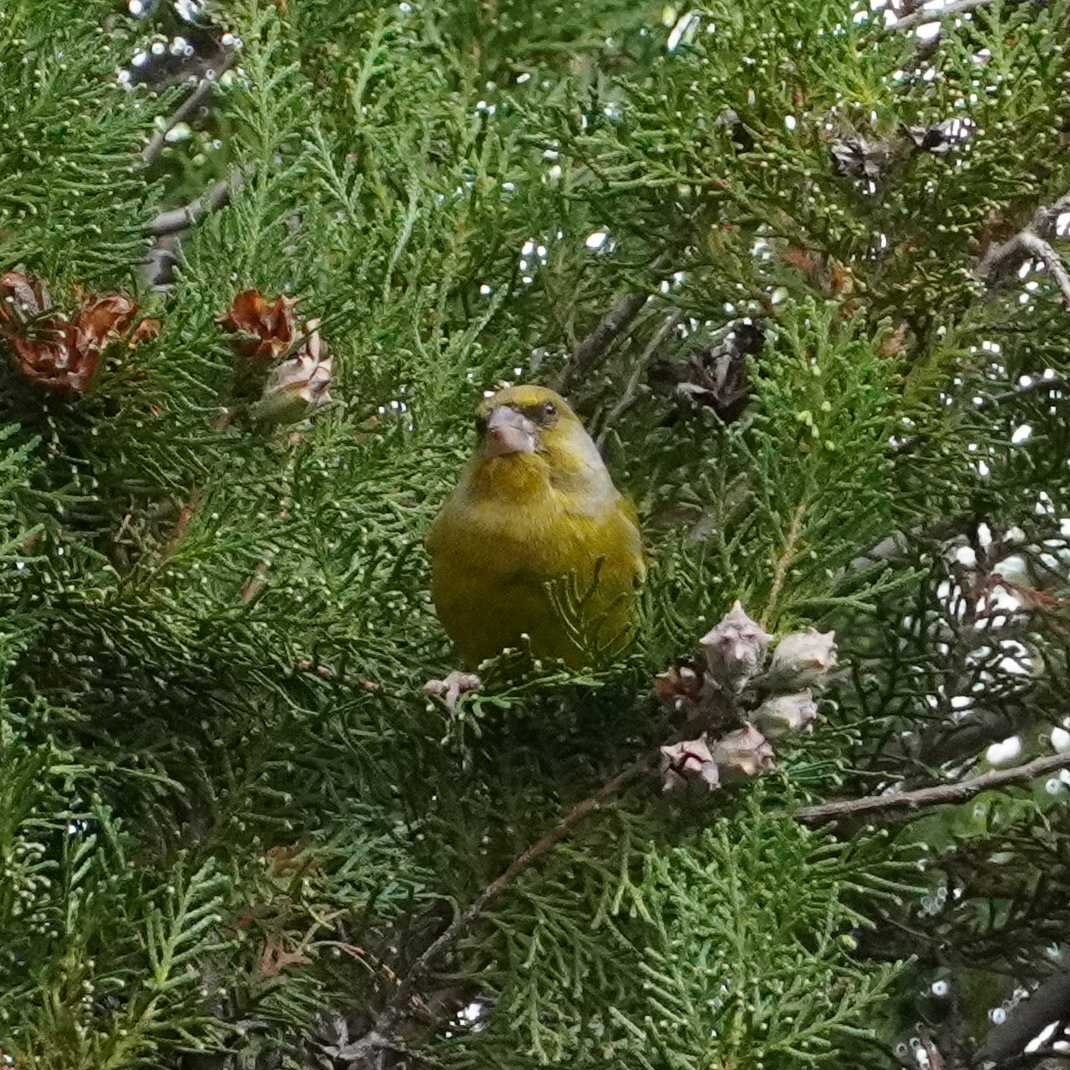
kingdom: Plantae
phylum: Tracheophyta
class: Liliopsida
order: Poales
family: Poaceae
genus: Chloris
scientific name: Chloris chloris
